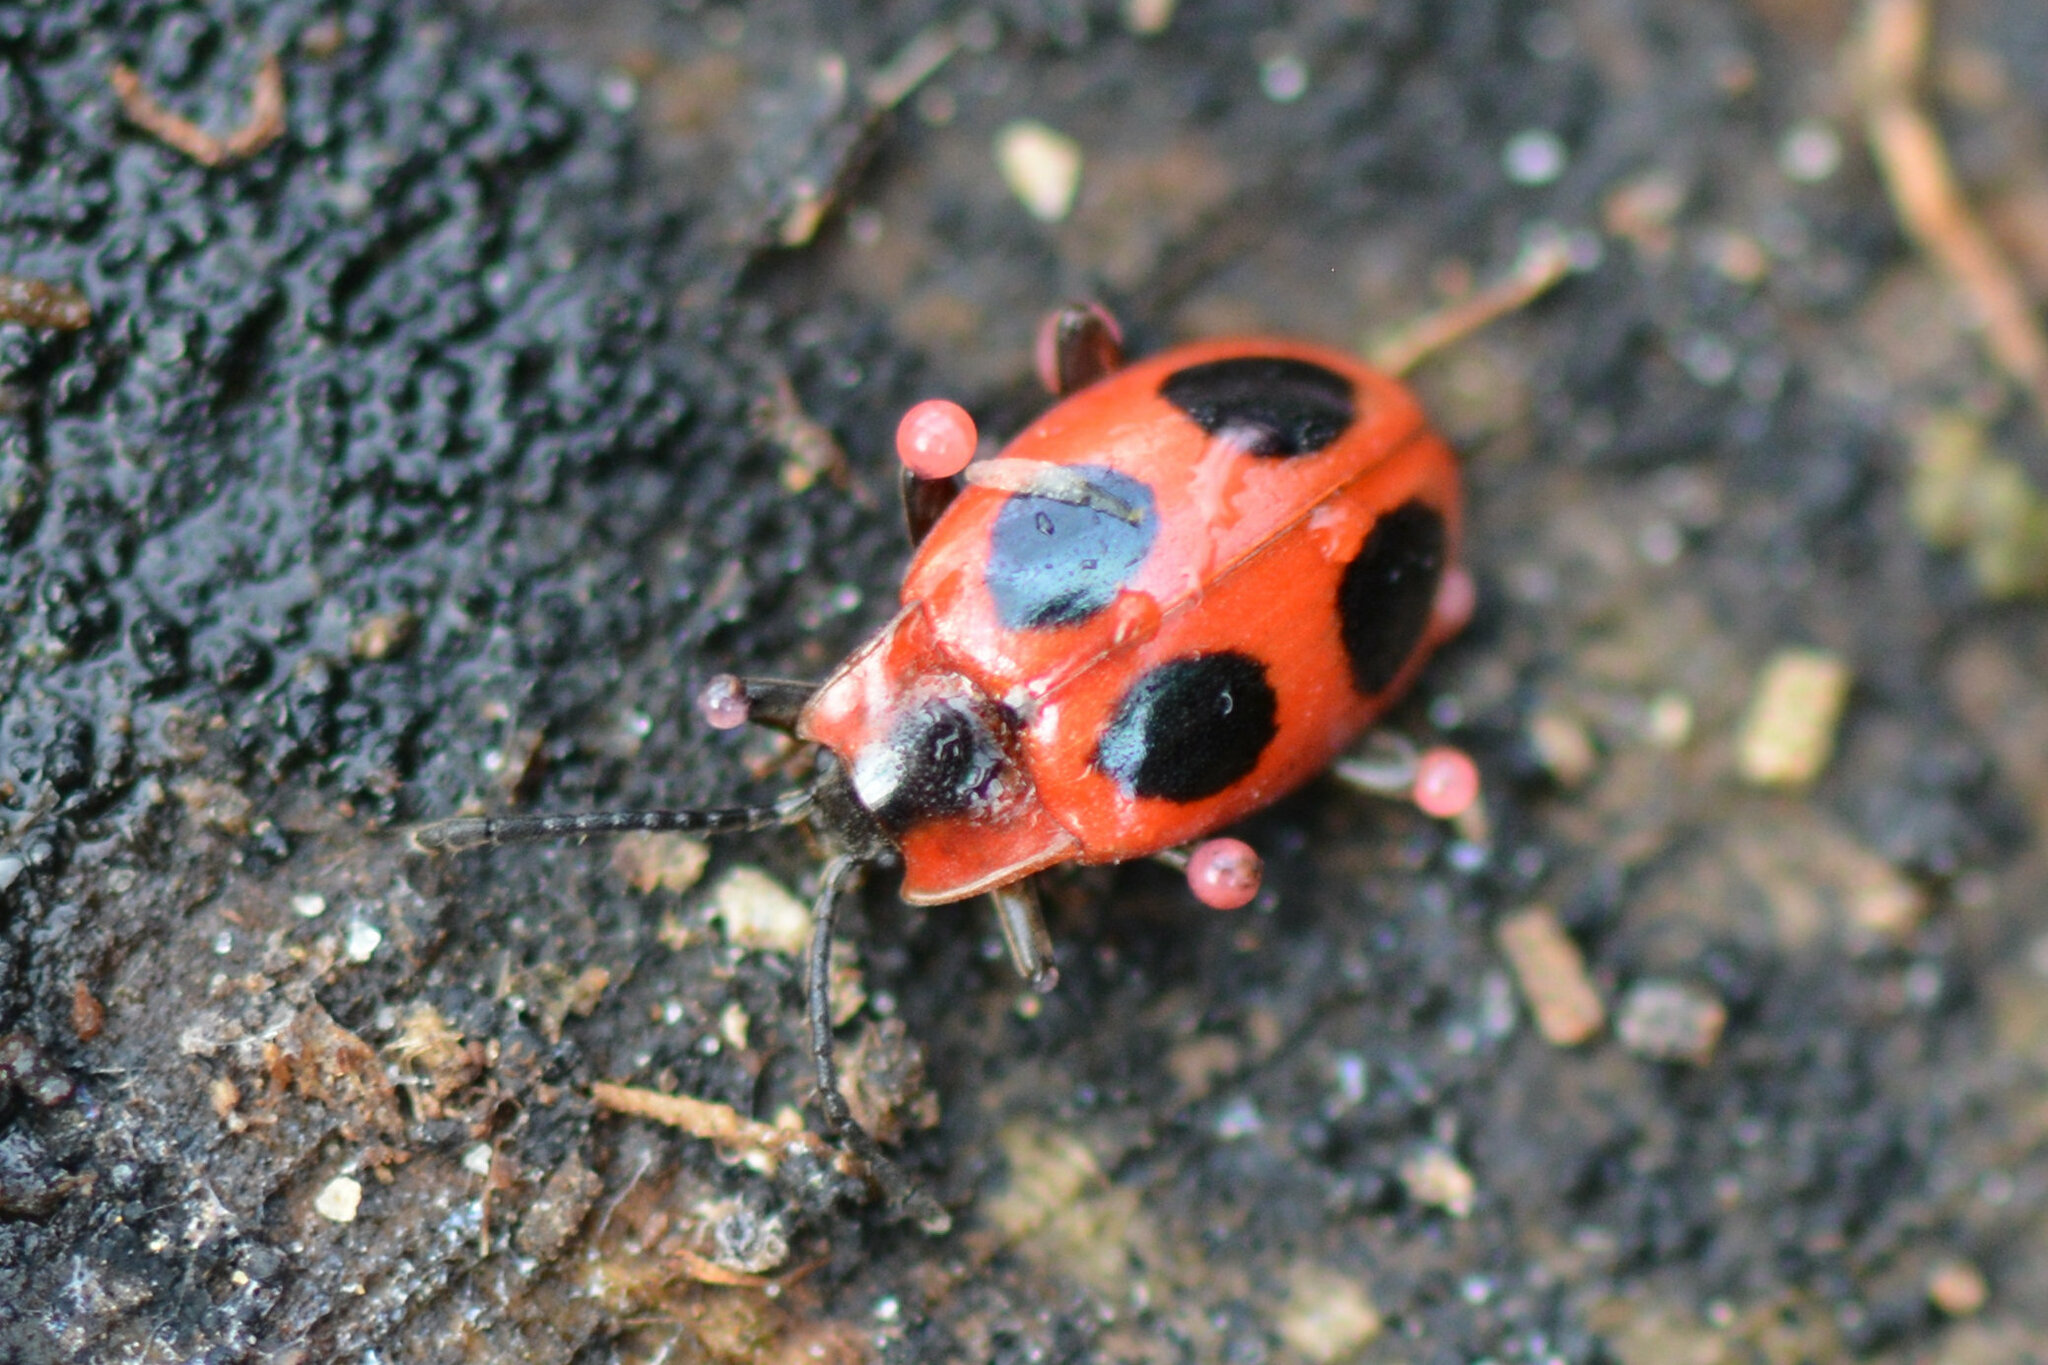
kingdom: Animalia
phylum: Arthropoda
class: Insecta
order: Coleoptera
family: Endomychidae
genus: Endomychus
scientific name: Endomychus coccineus
